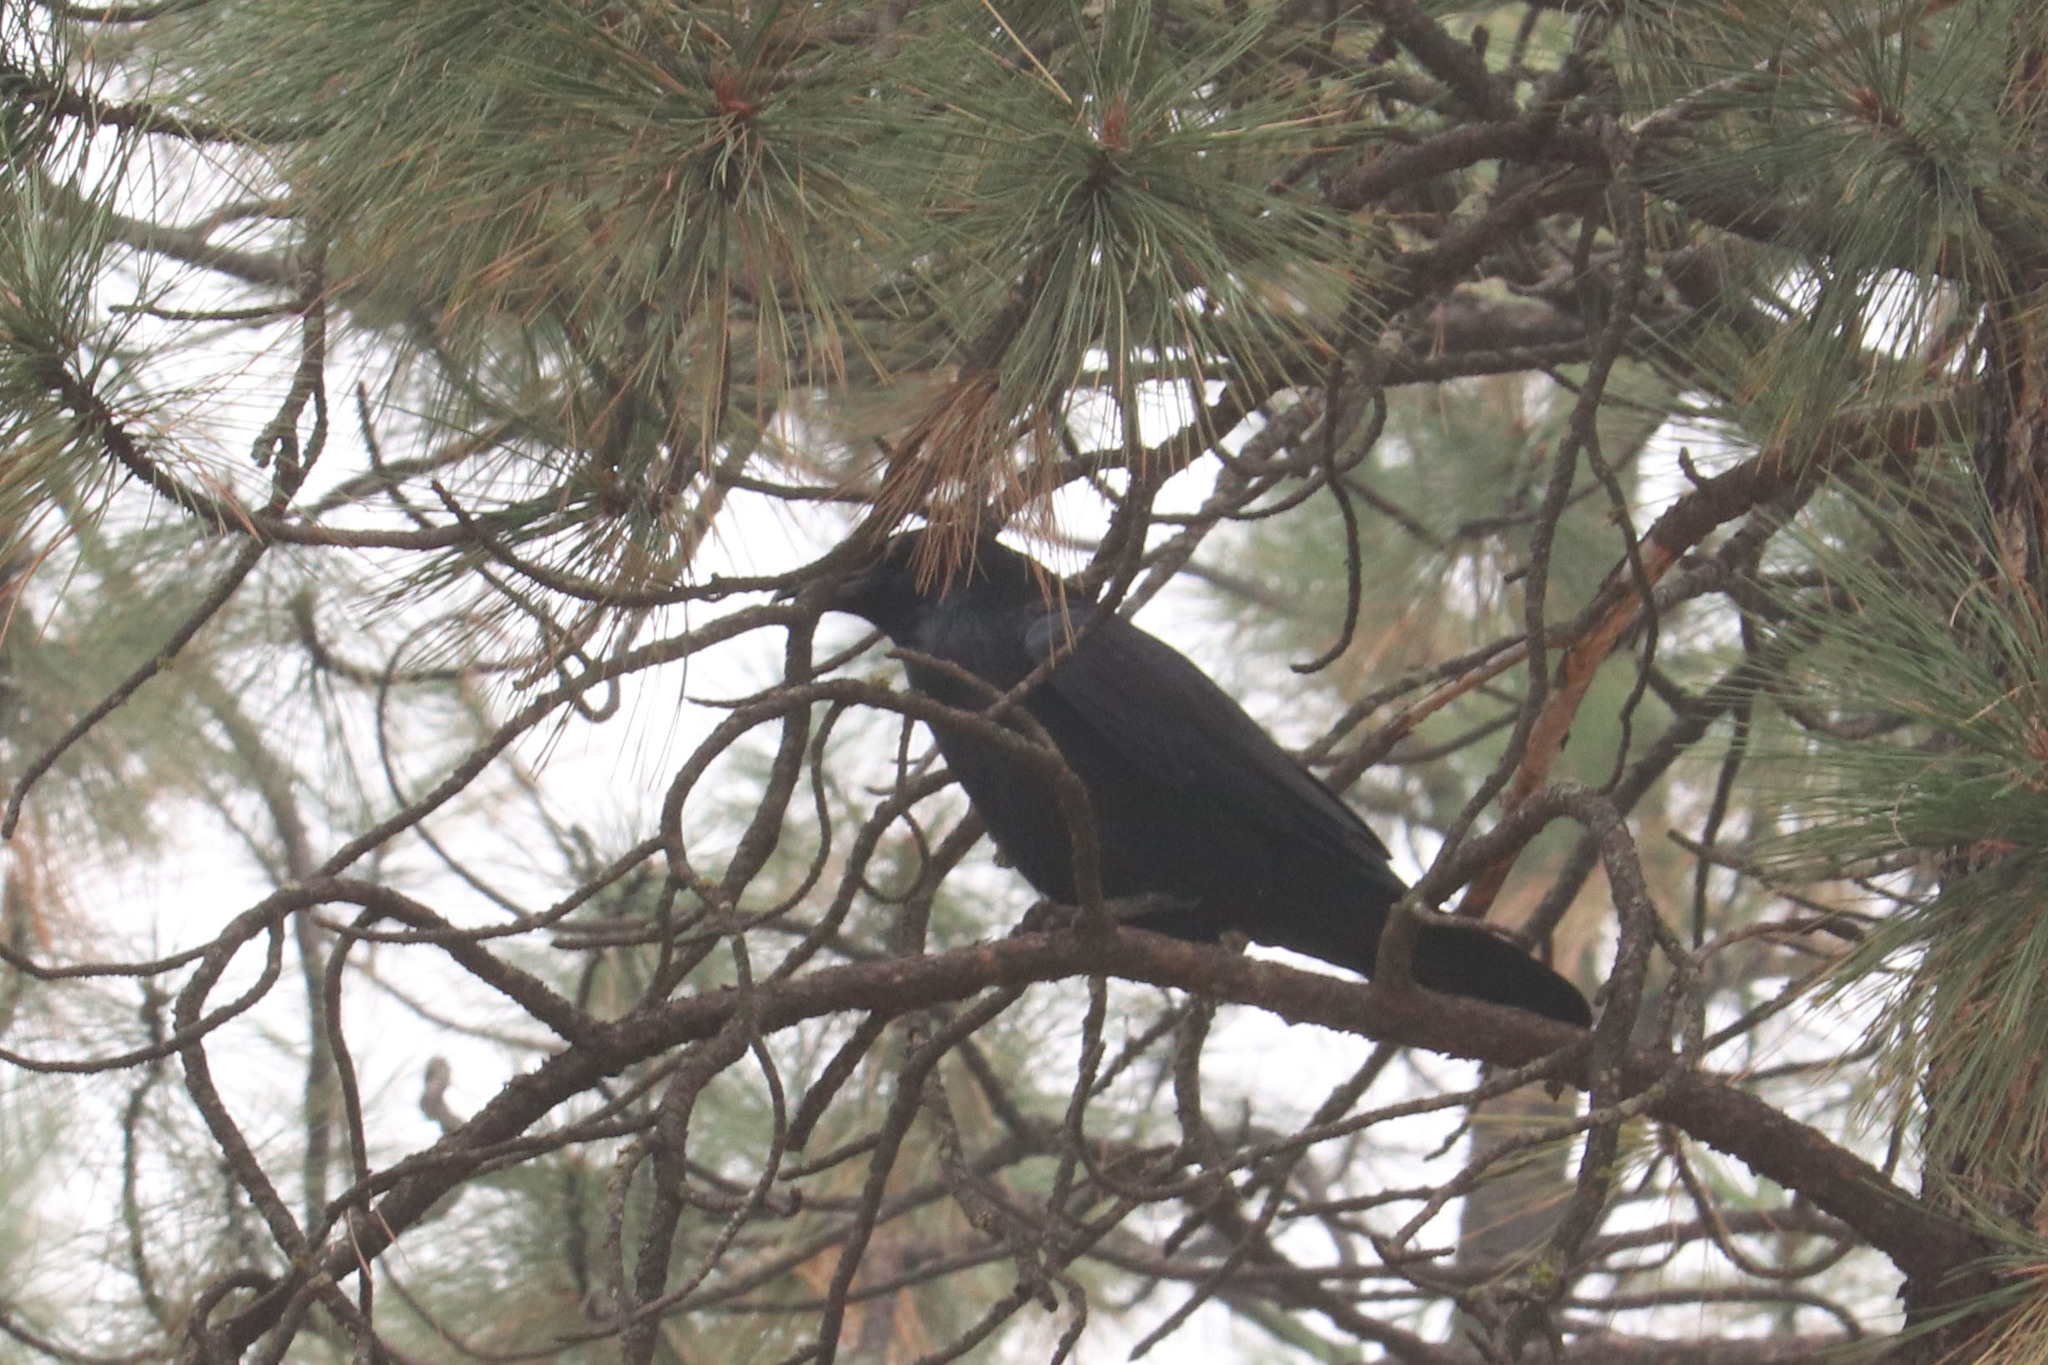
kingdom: Animalia
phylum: Chordata
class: Aves
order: Passeriformes
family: Corvidae
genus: Corvus
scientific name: Corvus corax
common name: Common raven
